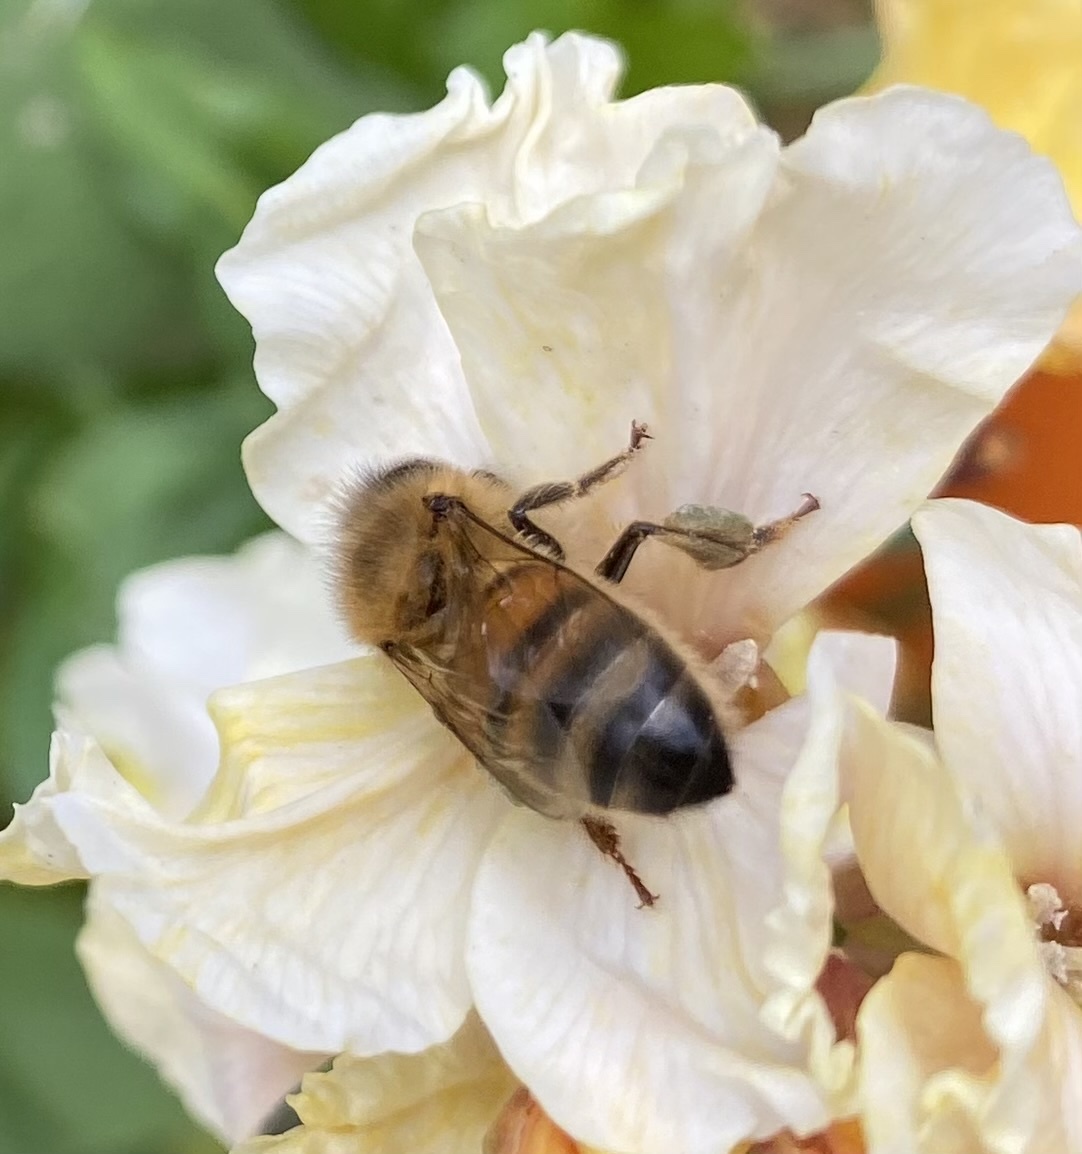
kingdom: Animalia
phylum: Arthropoda
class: Insecta
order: Hymenoptera
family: Apidae
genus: Apis
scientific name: Apis mellifera
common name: Honey bee
